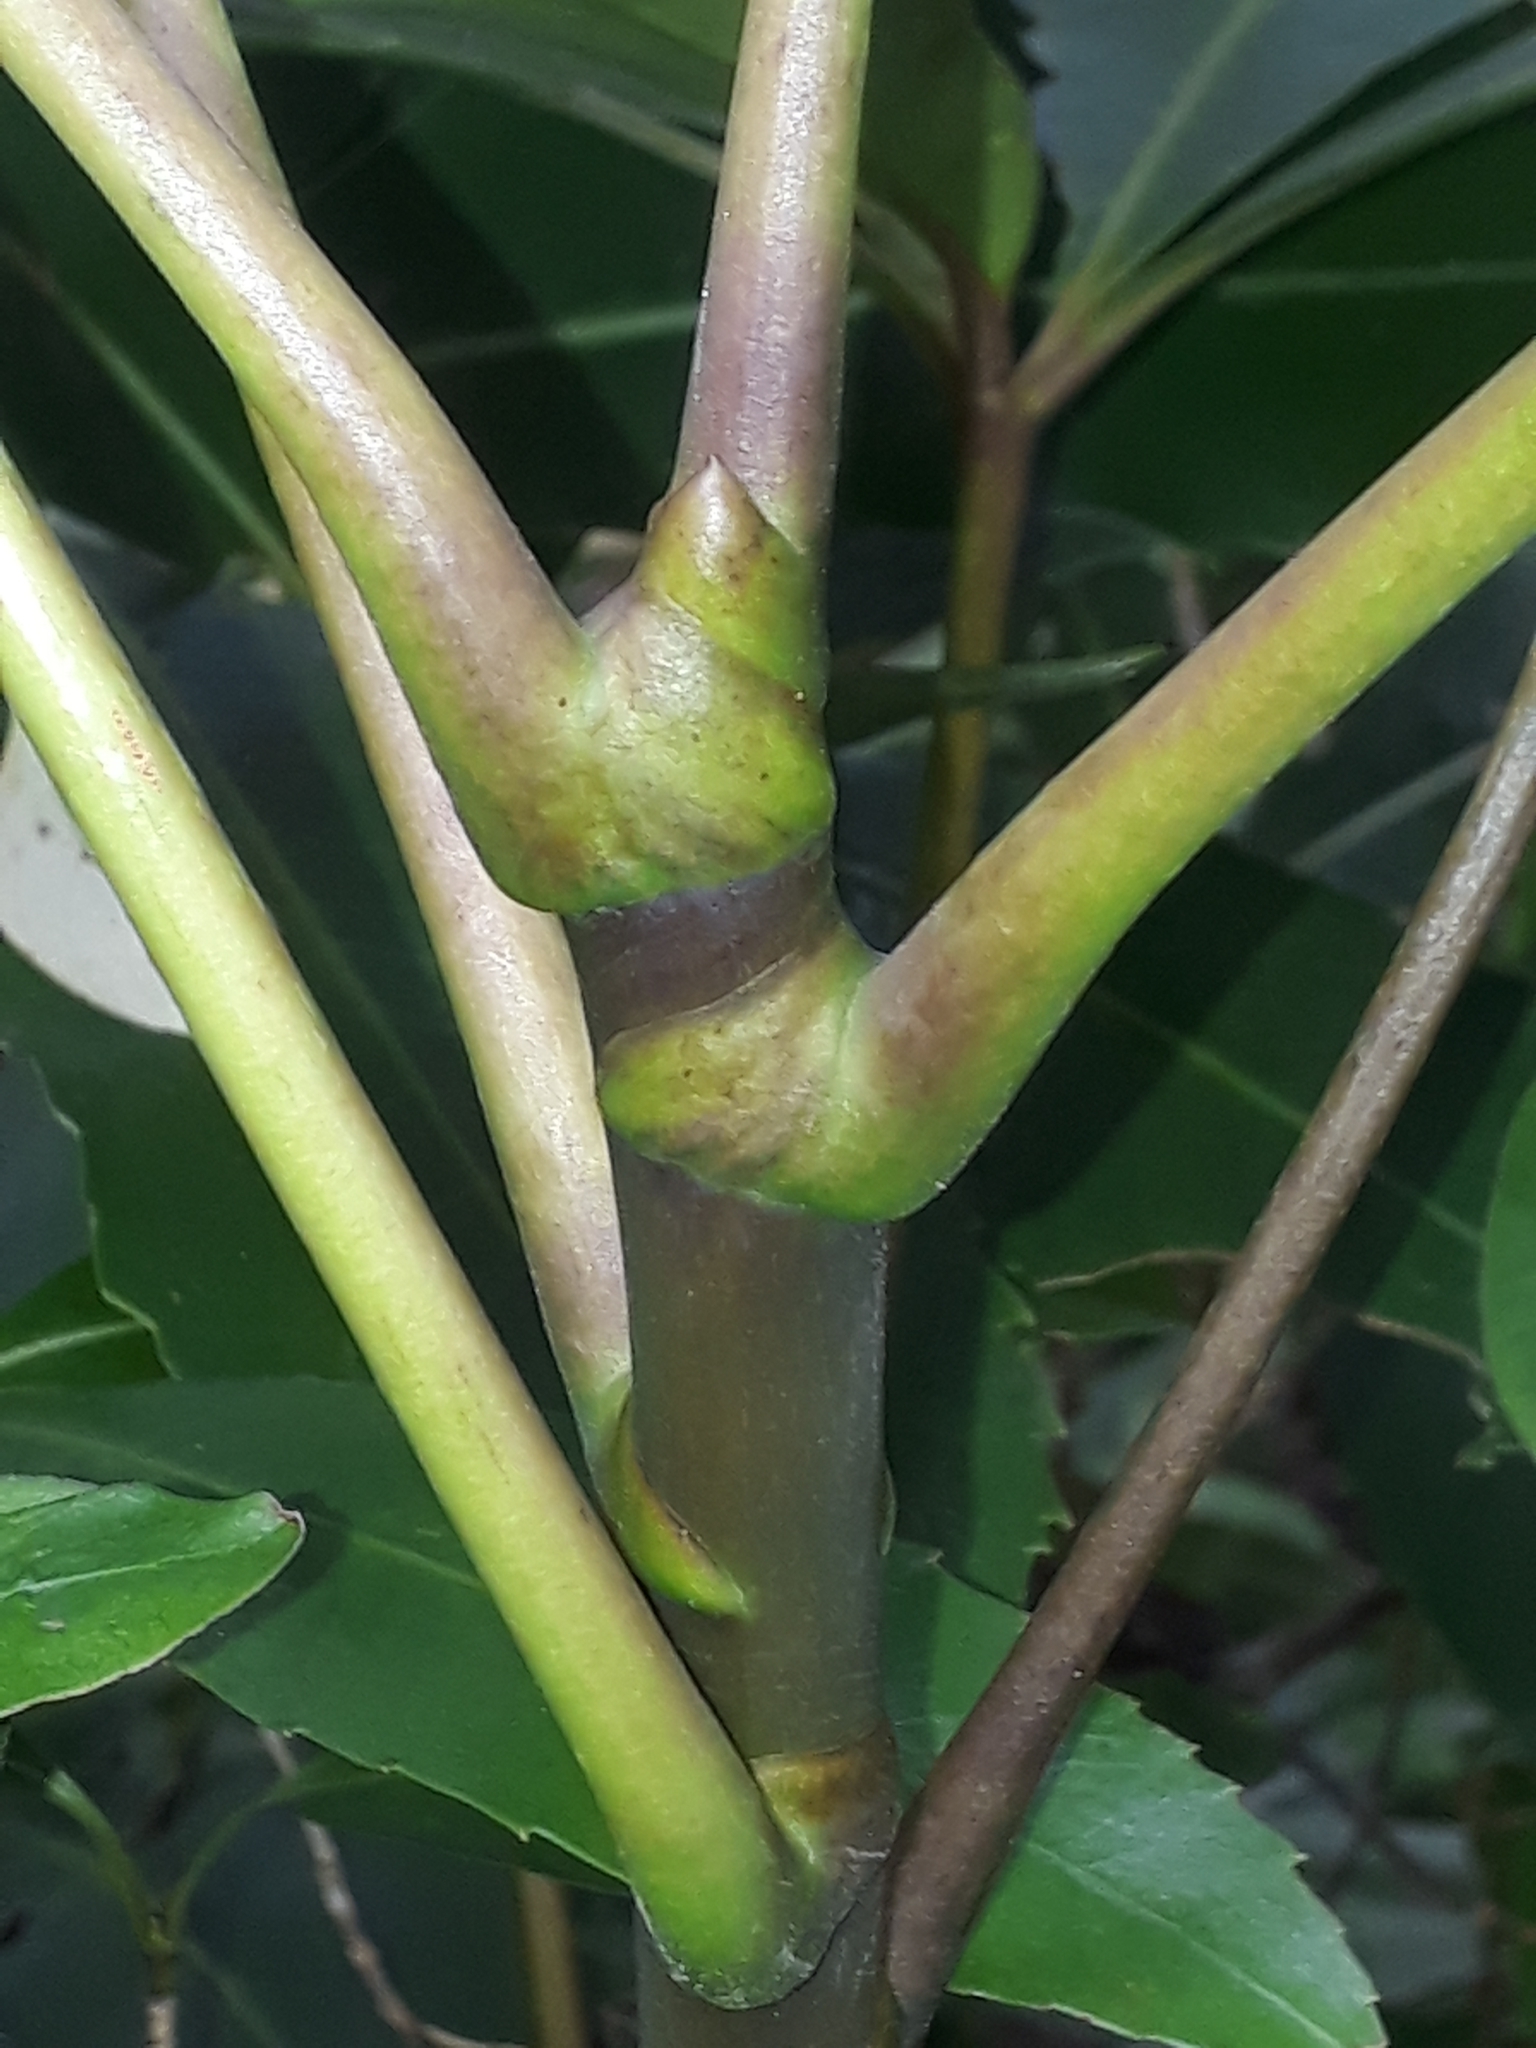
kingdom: Plantae
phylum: Tracheophyta
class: Magnoliopsida
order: Apiales
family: Araliaceae
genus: Neopanax
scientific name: Neopanax colensoi
